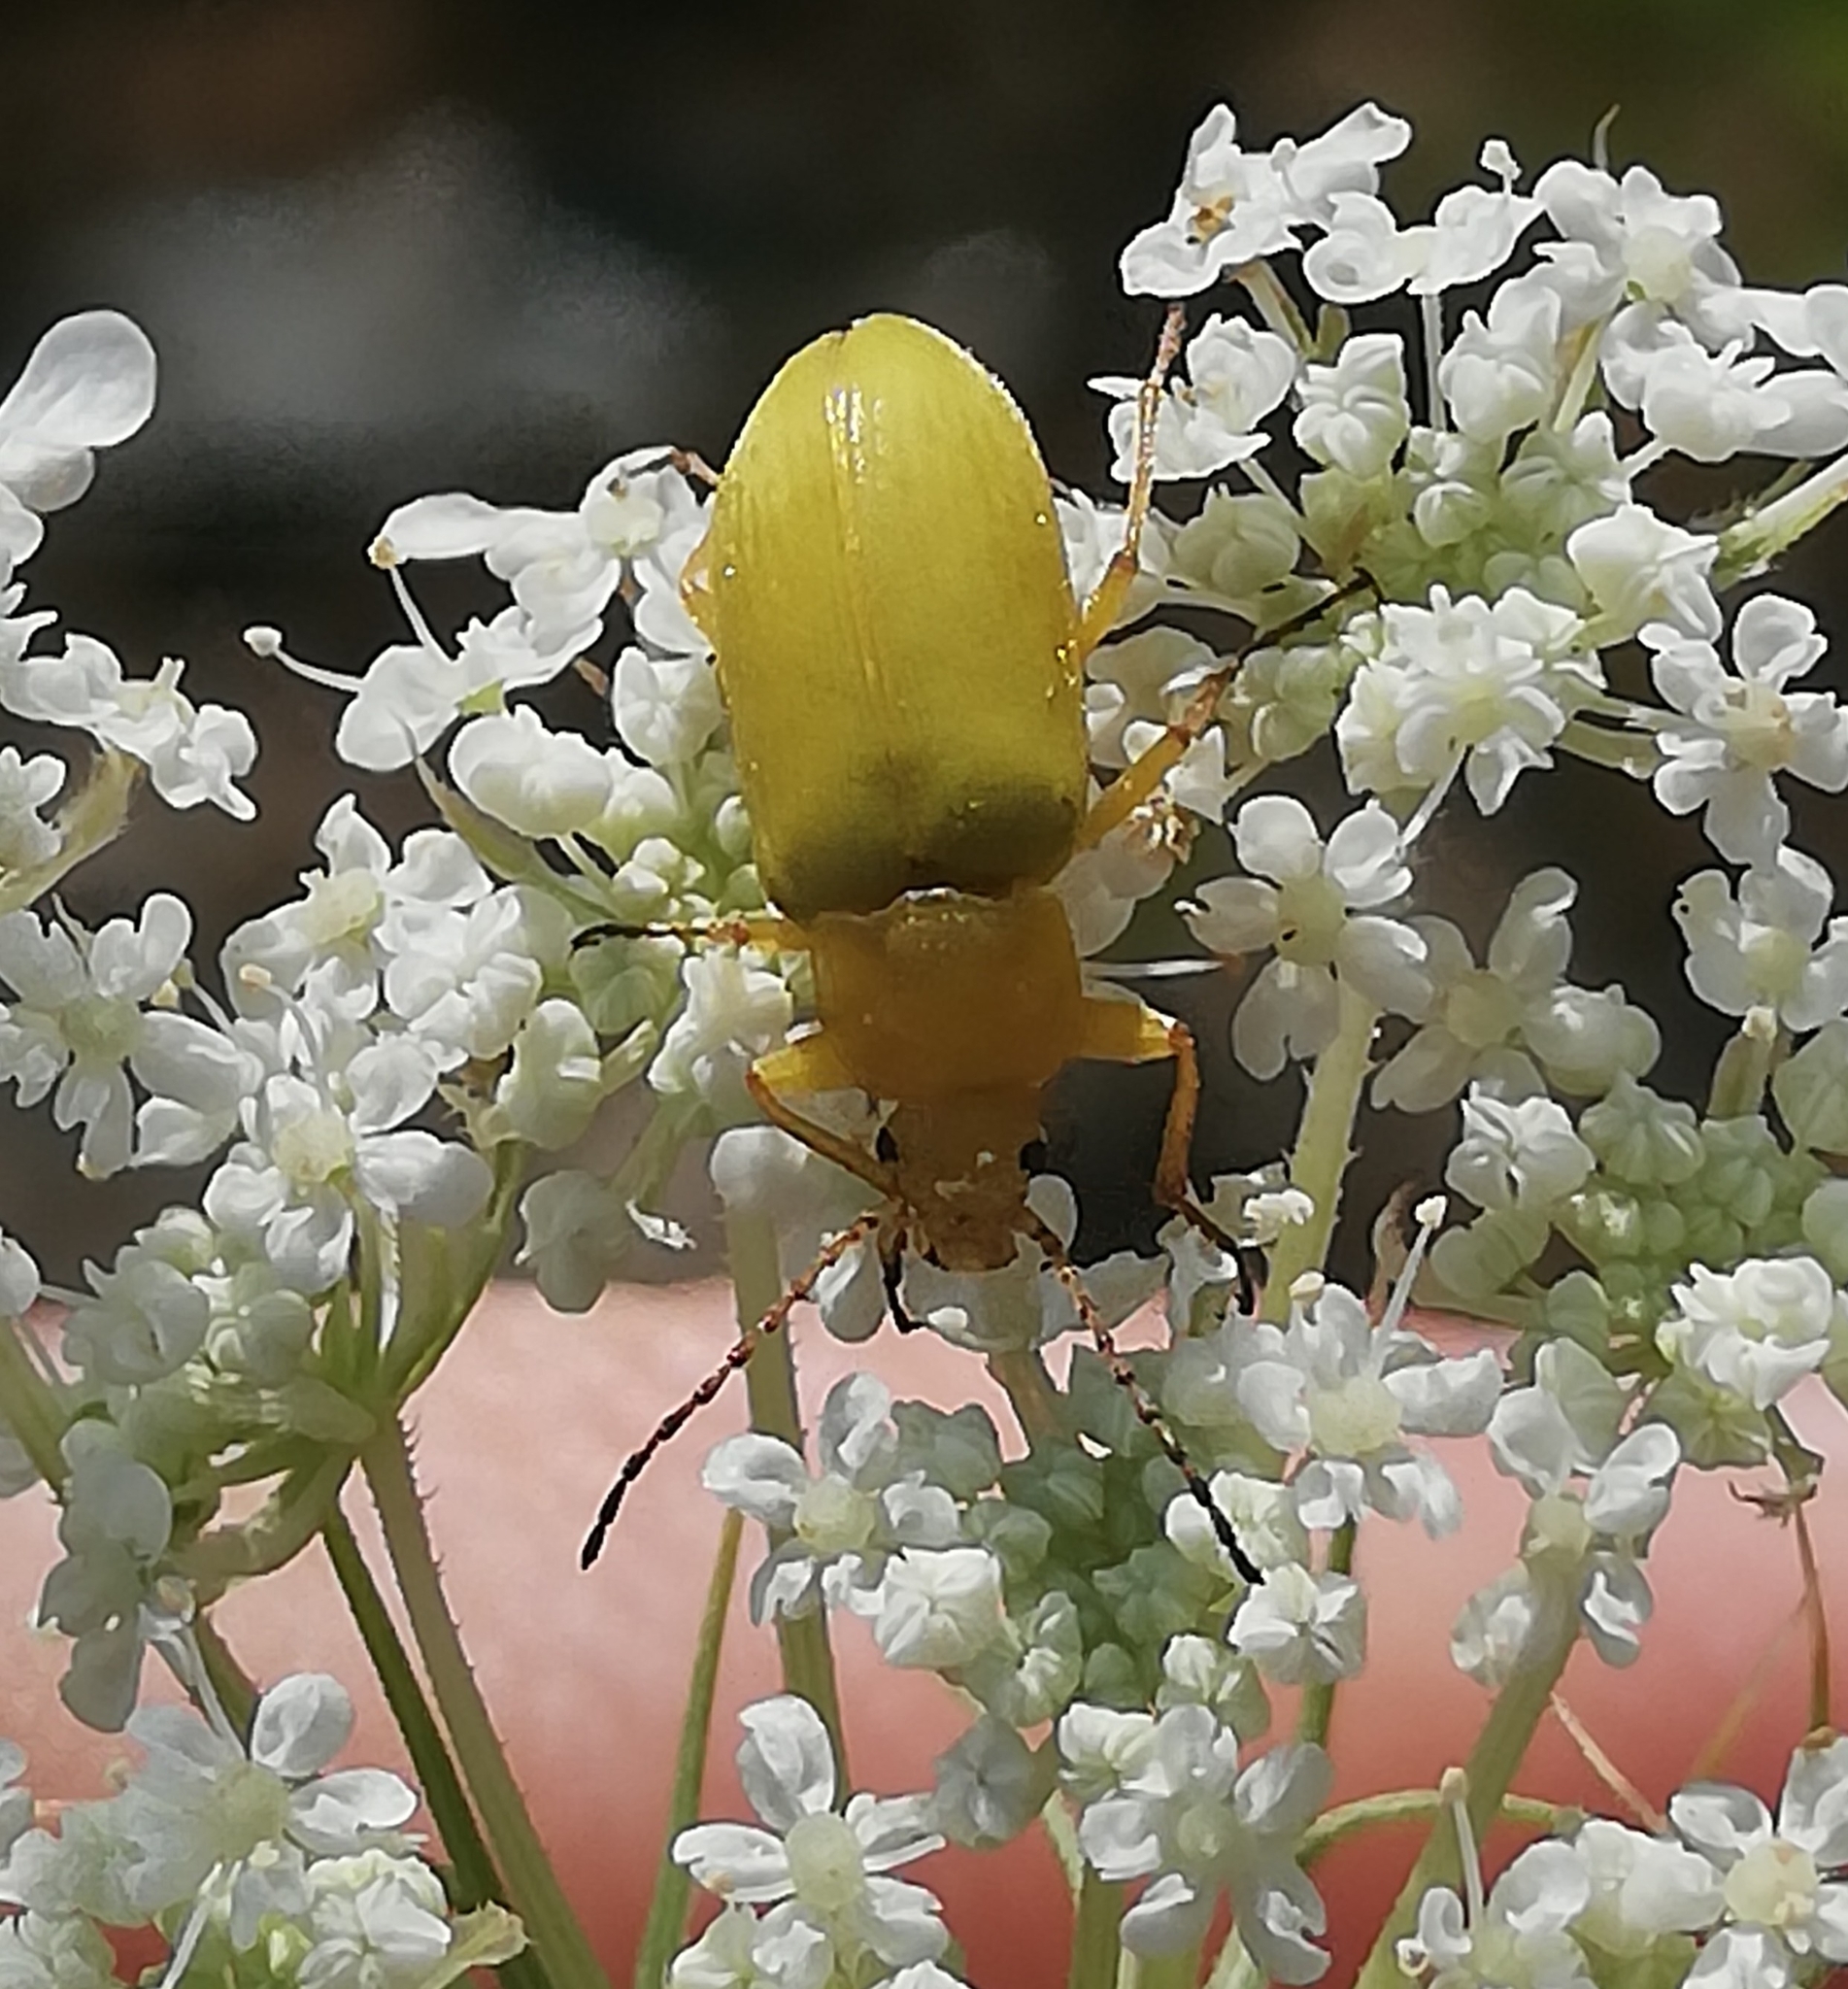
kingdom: Animalia
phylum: Arthropoda
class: Insecta
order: Coleoptera
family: Tenebrionidae
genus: Cteniopus
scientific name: Cteniopus sulphureus
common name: Sulphur beetle
